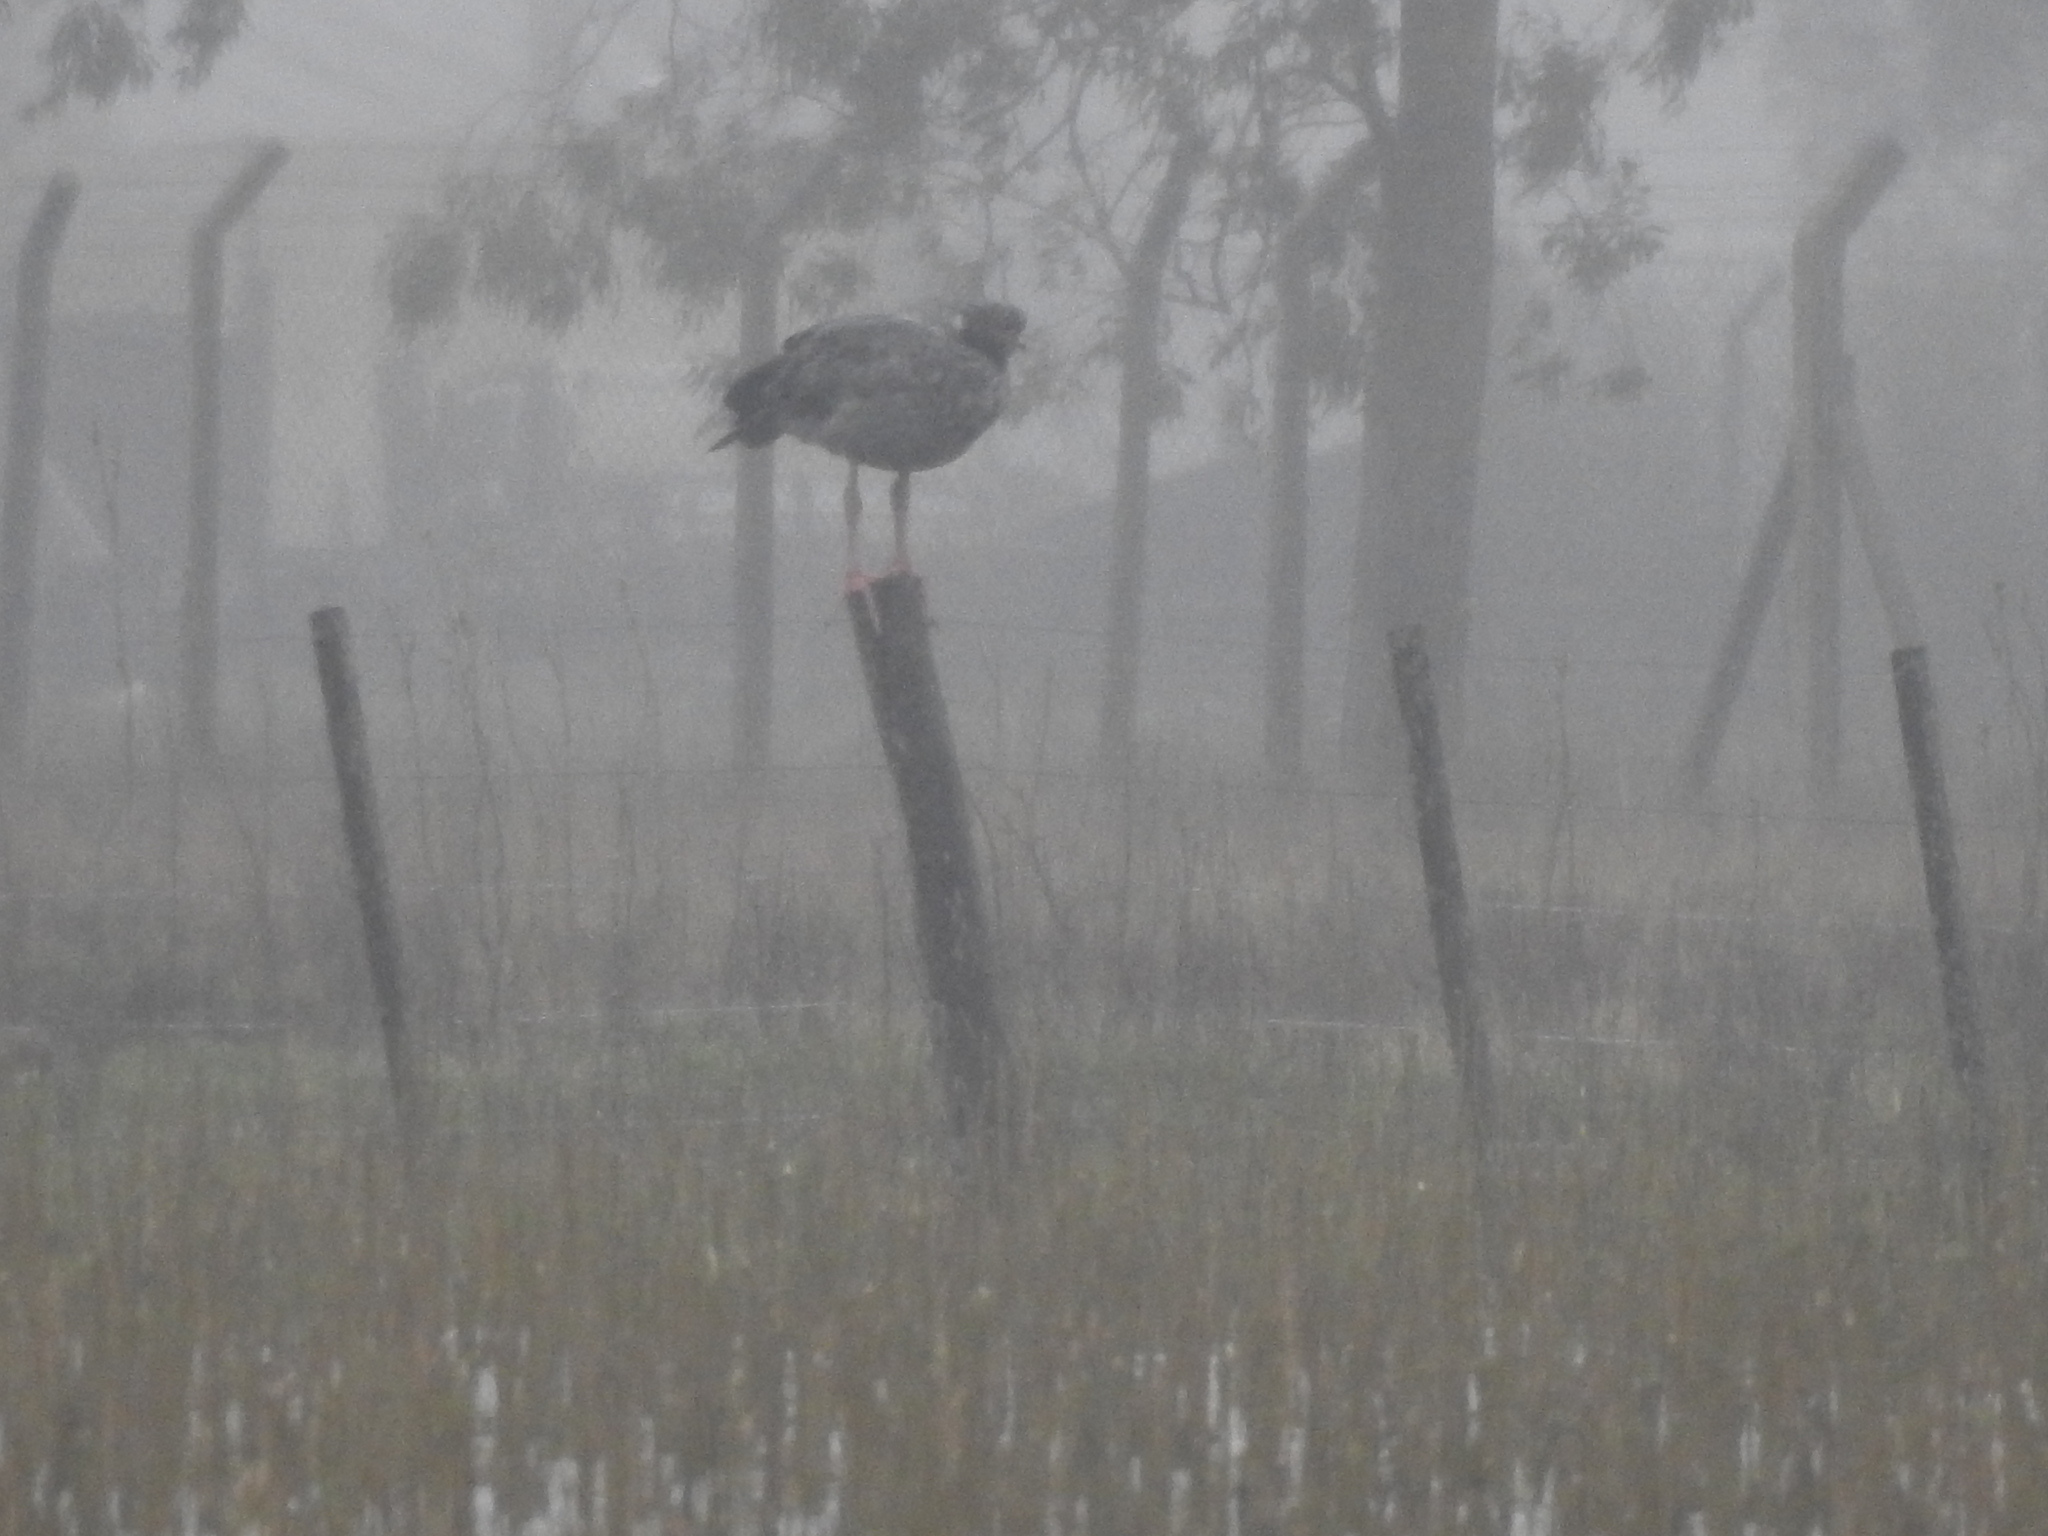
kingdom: Animalia
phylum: Chordata
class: Aves
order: Anseriformes
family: Anhimidae
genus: Chauna
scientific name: Chauna torquata
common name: Southern screamer
